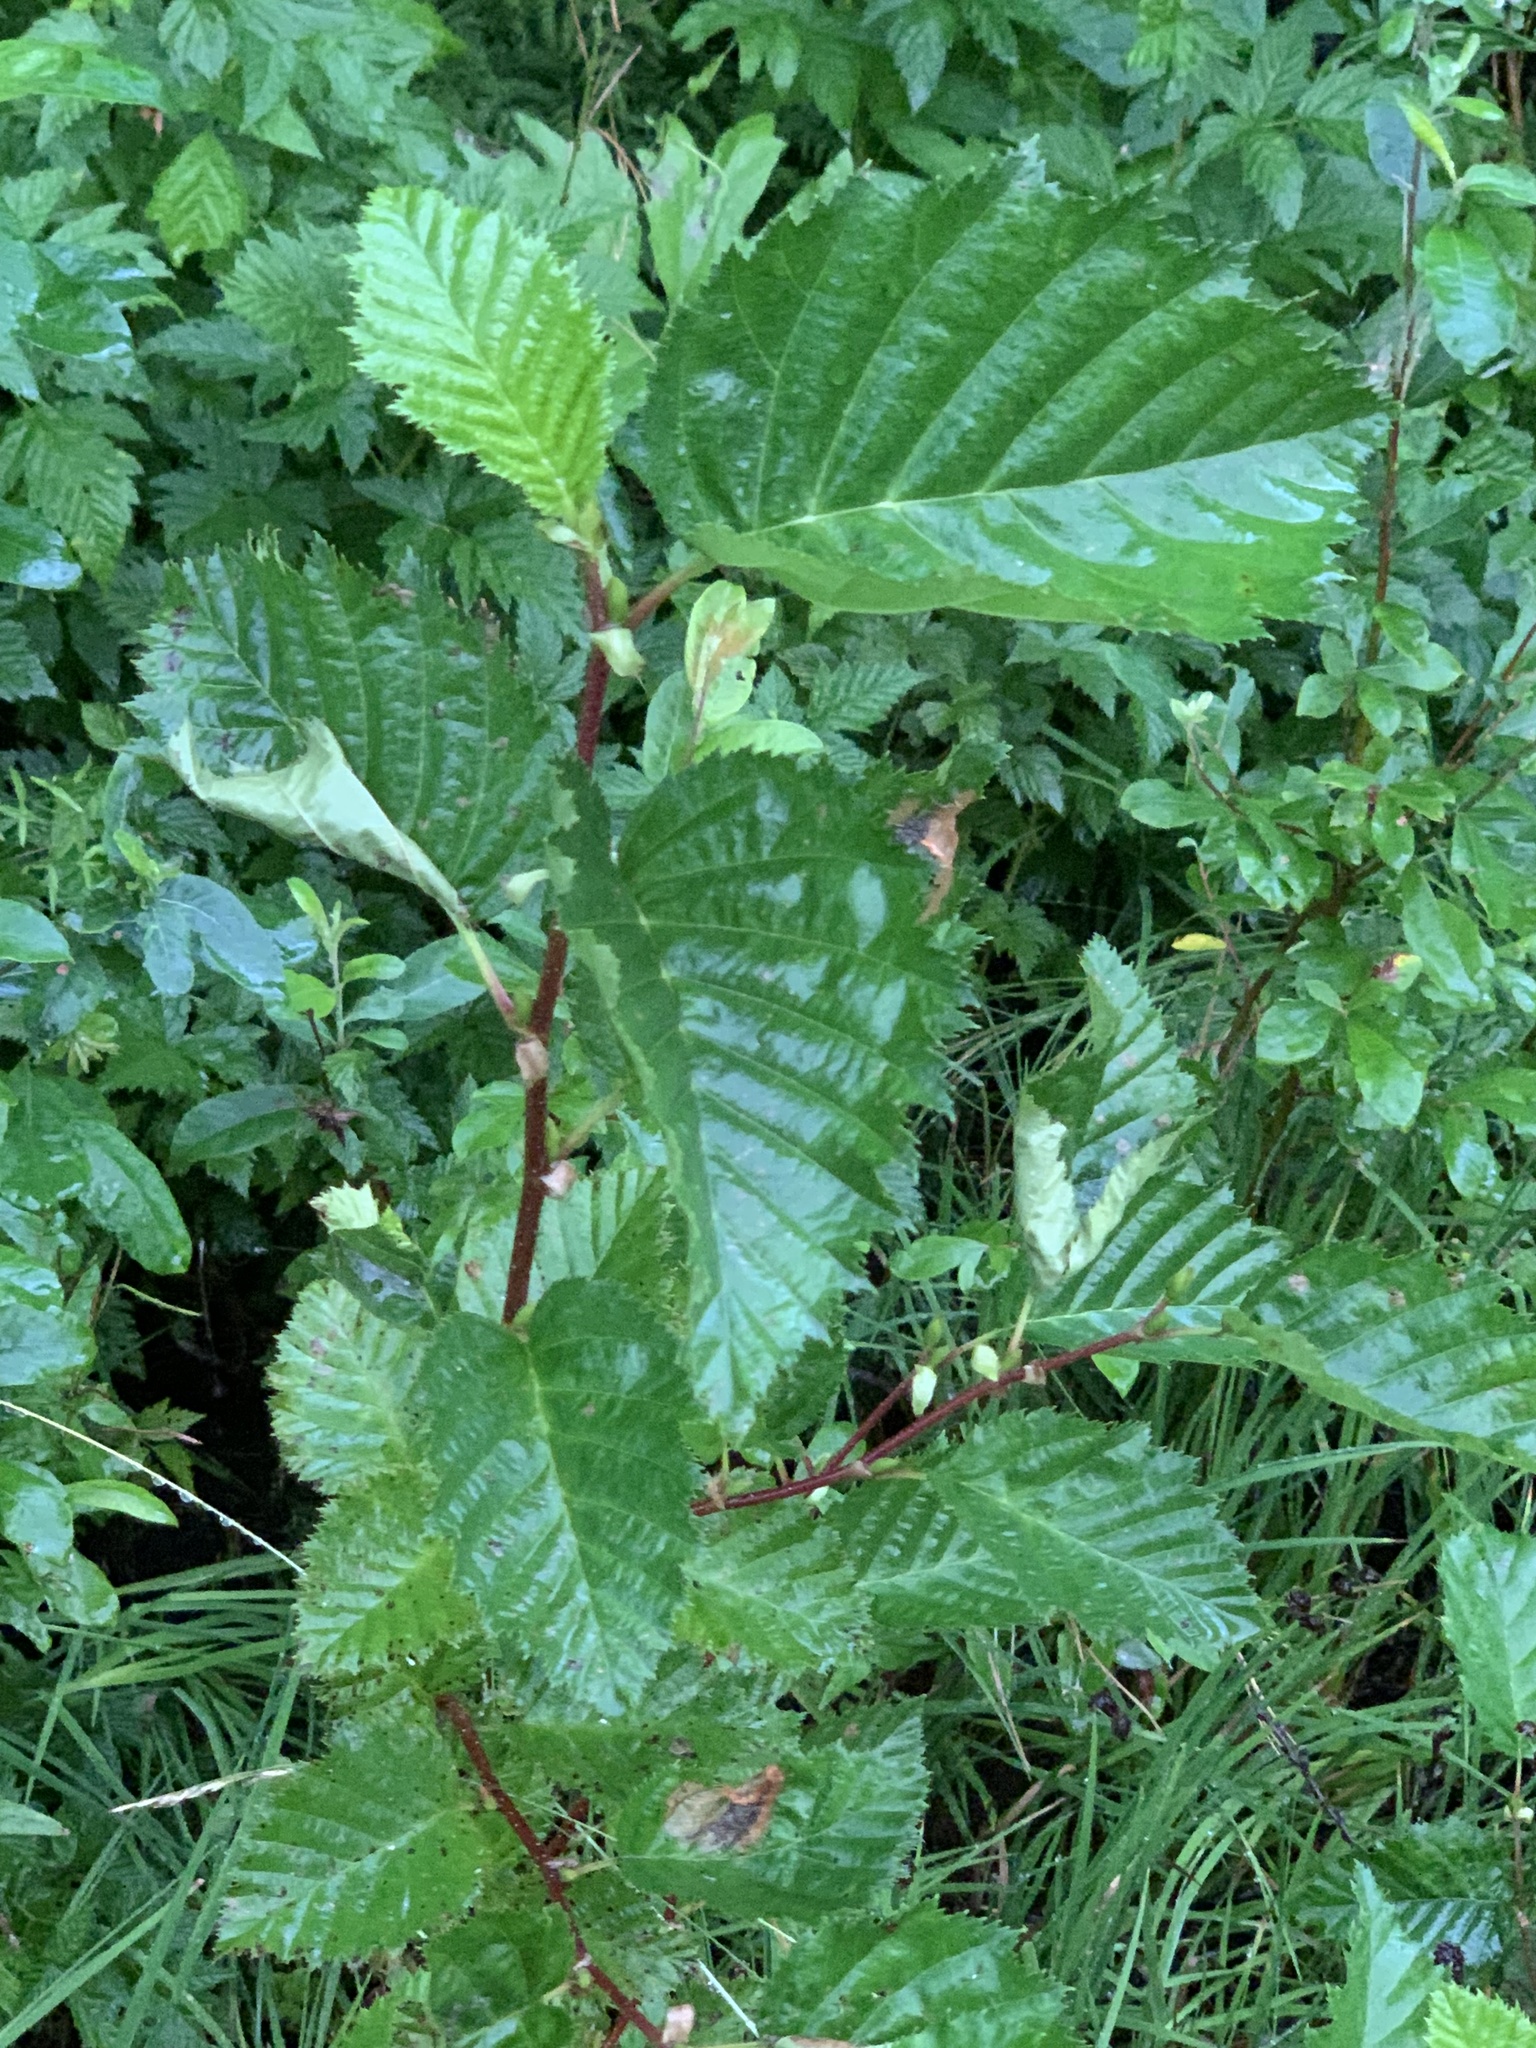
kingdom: Plantae
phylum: Tracheophyta
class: Magnoliopsida
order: Fagales
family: Betulaceae
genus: Alnus
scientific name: Alnus alnobetula
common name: Green alder
